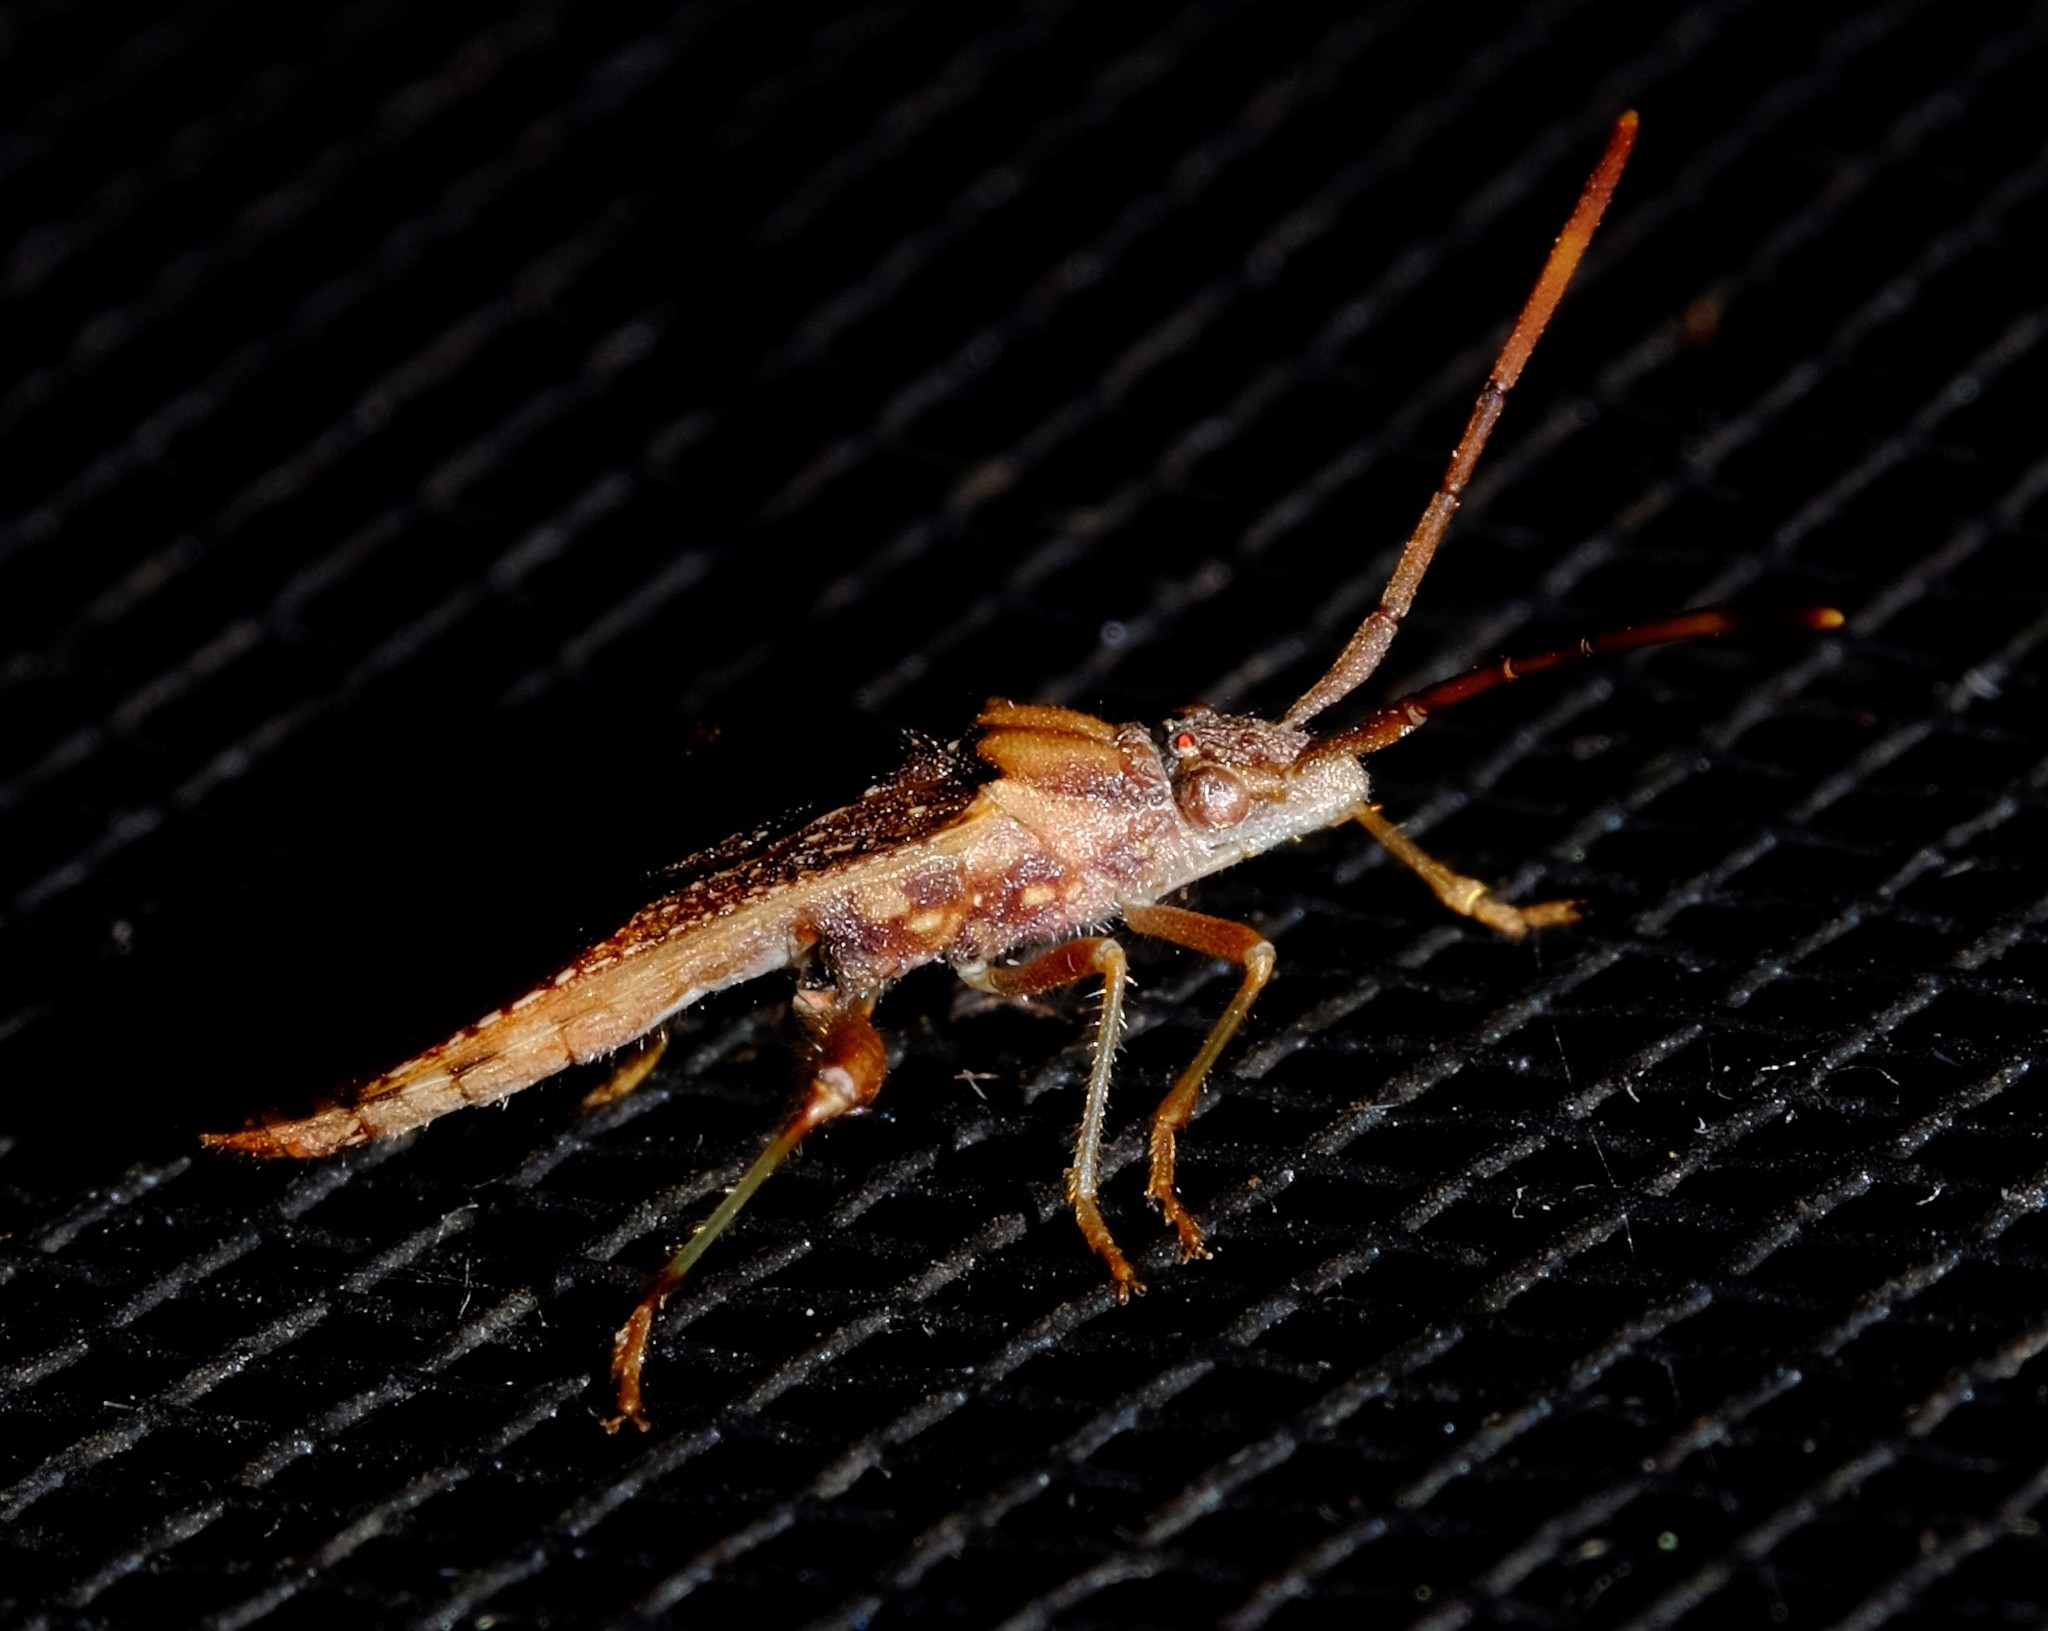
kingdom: Animalia
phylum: Arthropoda
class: Insecta
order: Hemiptera
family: Alydidae
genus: Hamedius
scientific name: Hamedius incarnatus
